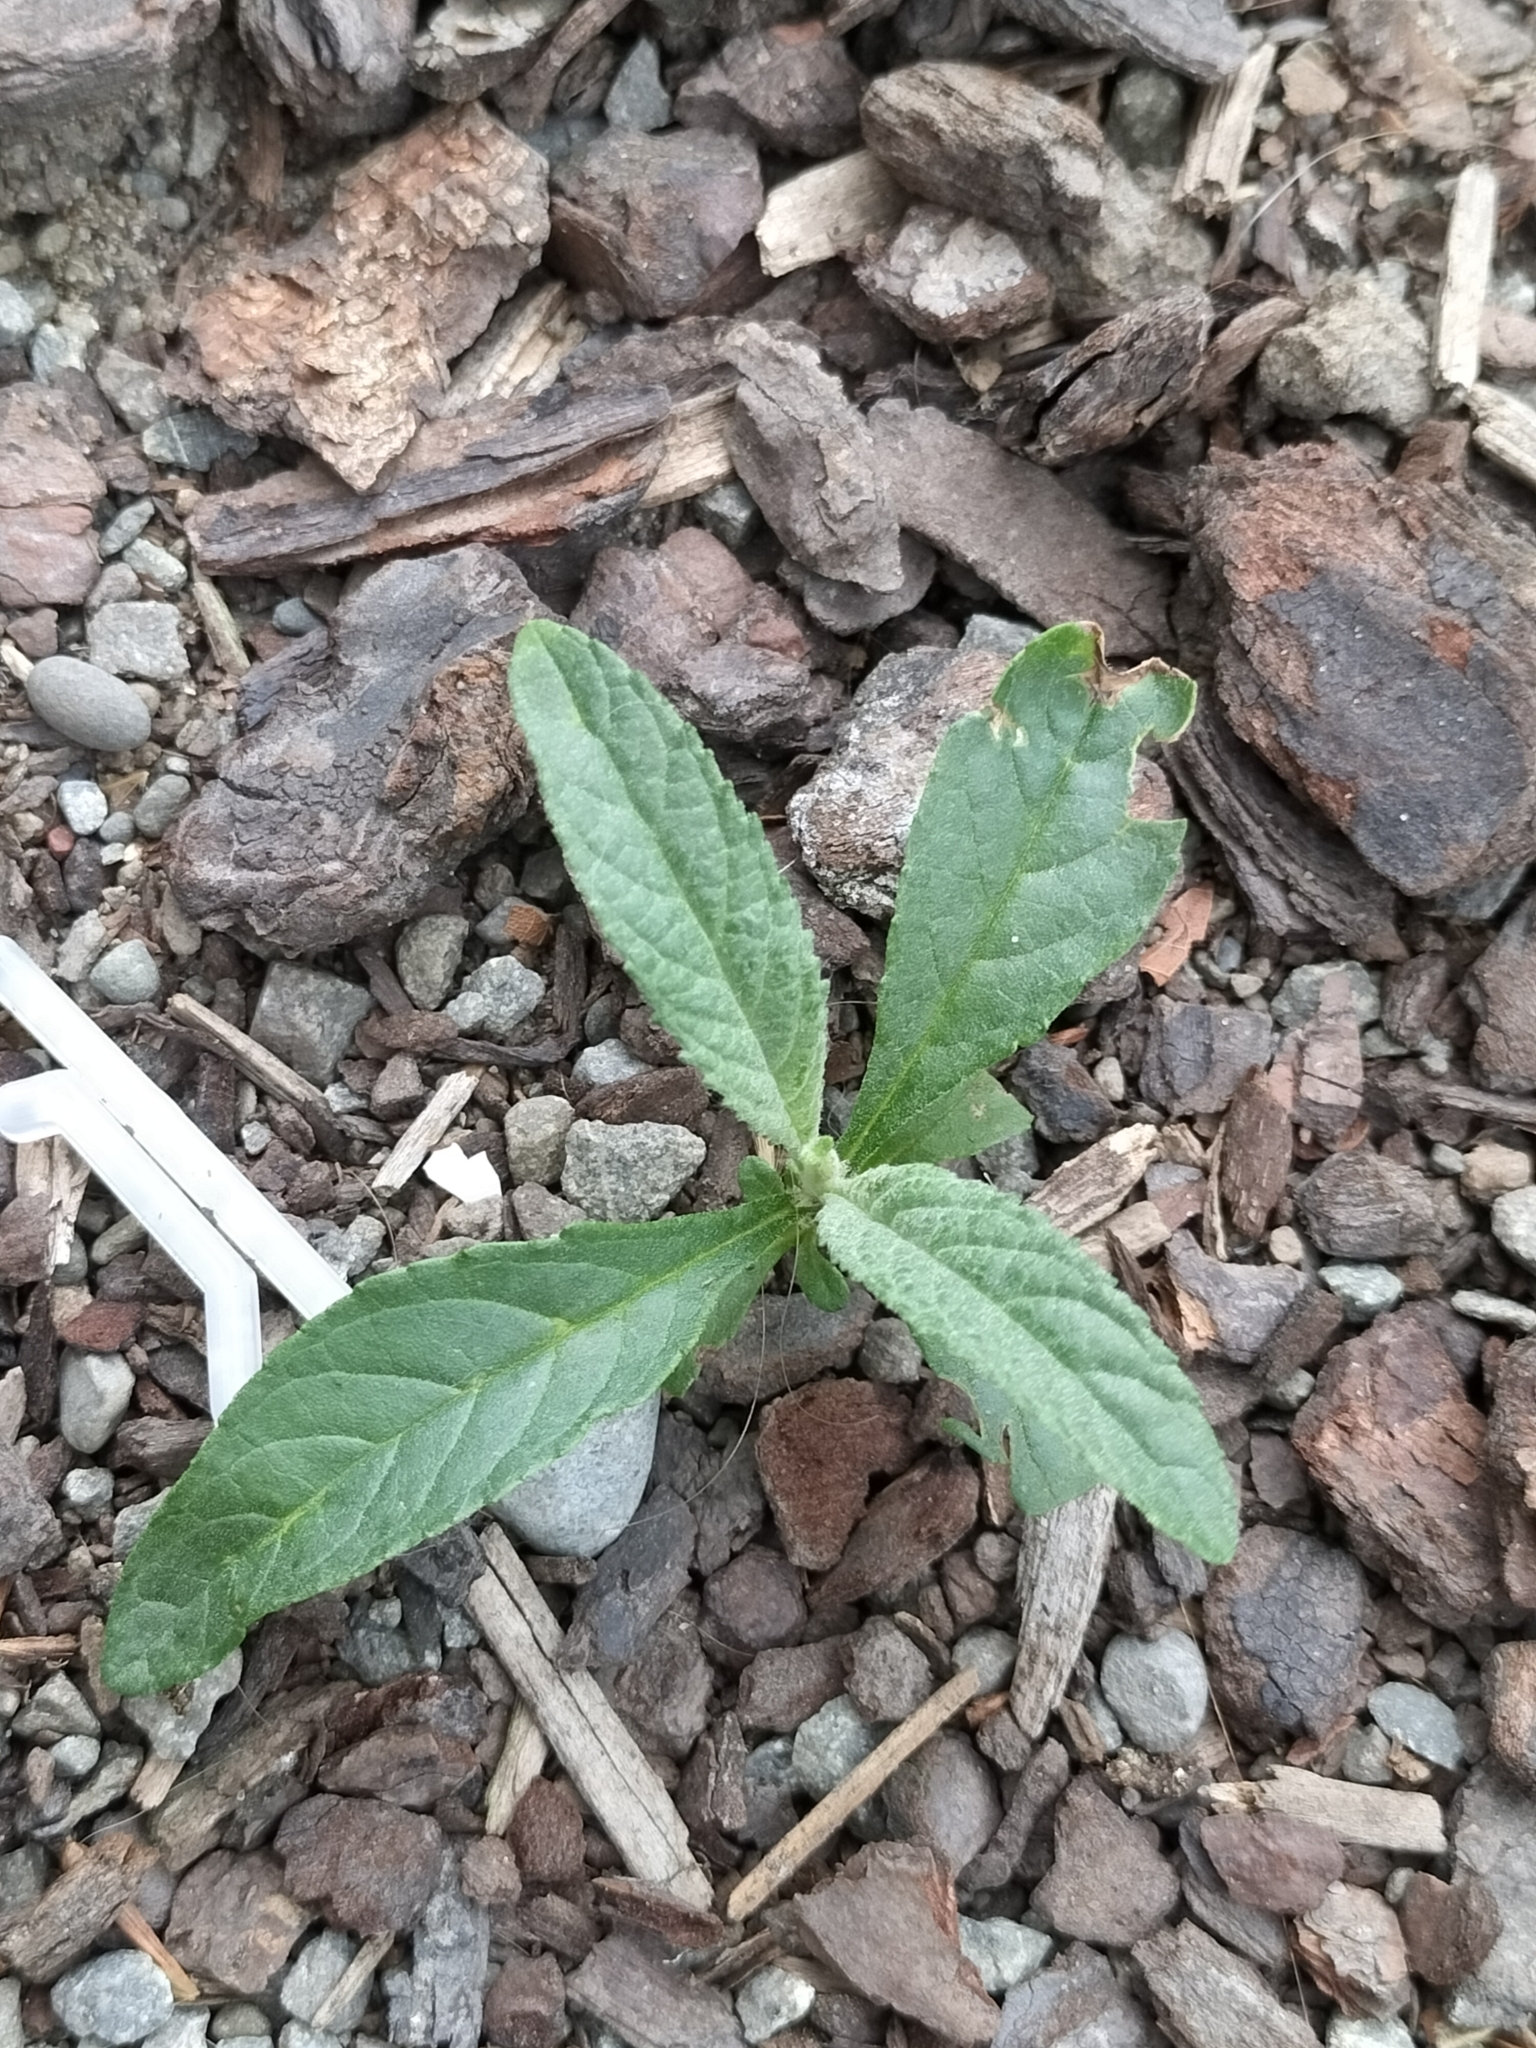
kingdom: Plantae
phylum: Tracheophyta
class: Magnoliopsida
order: Lamiales
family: Scrophulariaceae
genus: Buddleja
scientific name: Buddleja davidii
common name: Butterfly-bush
